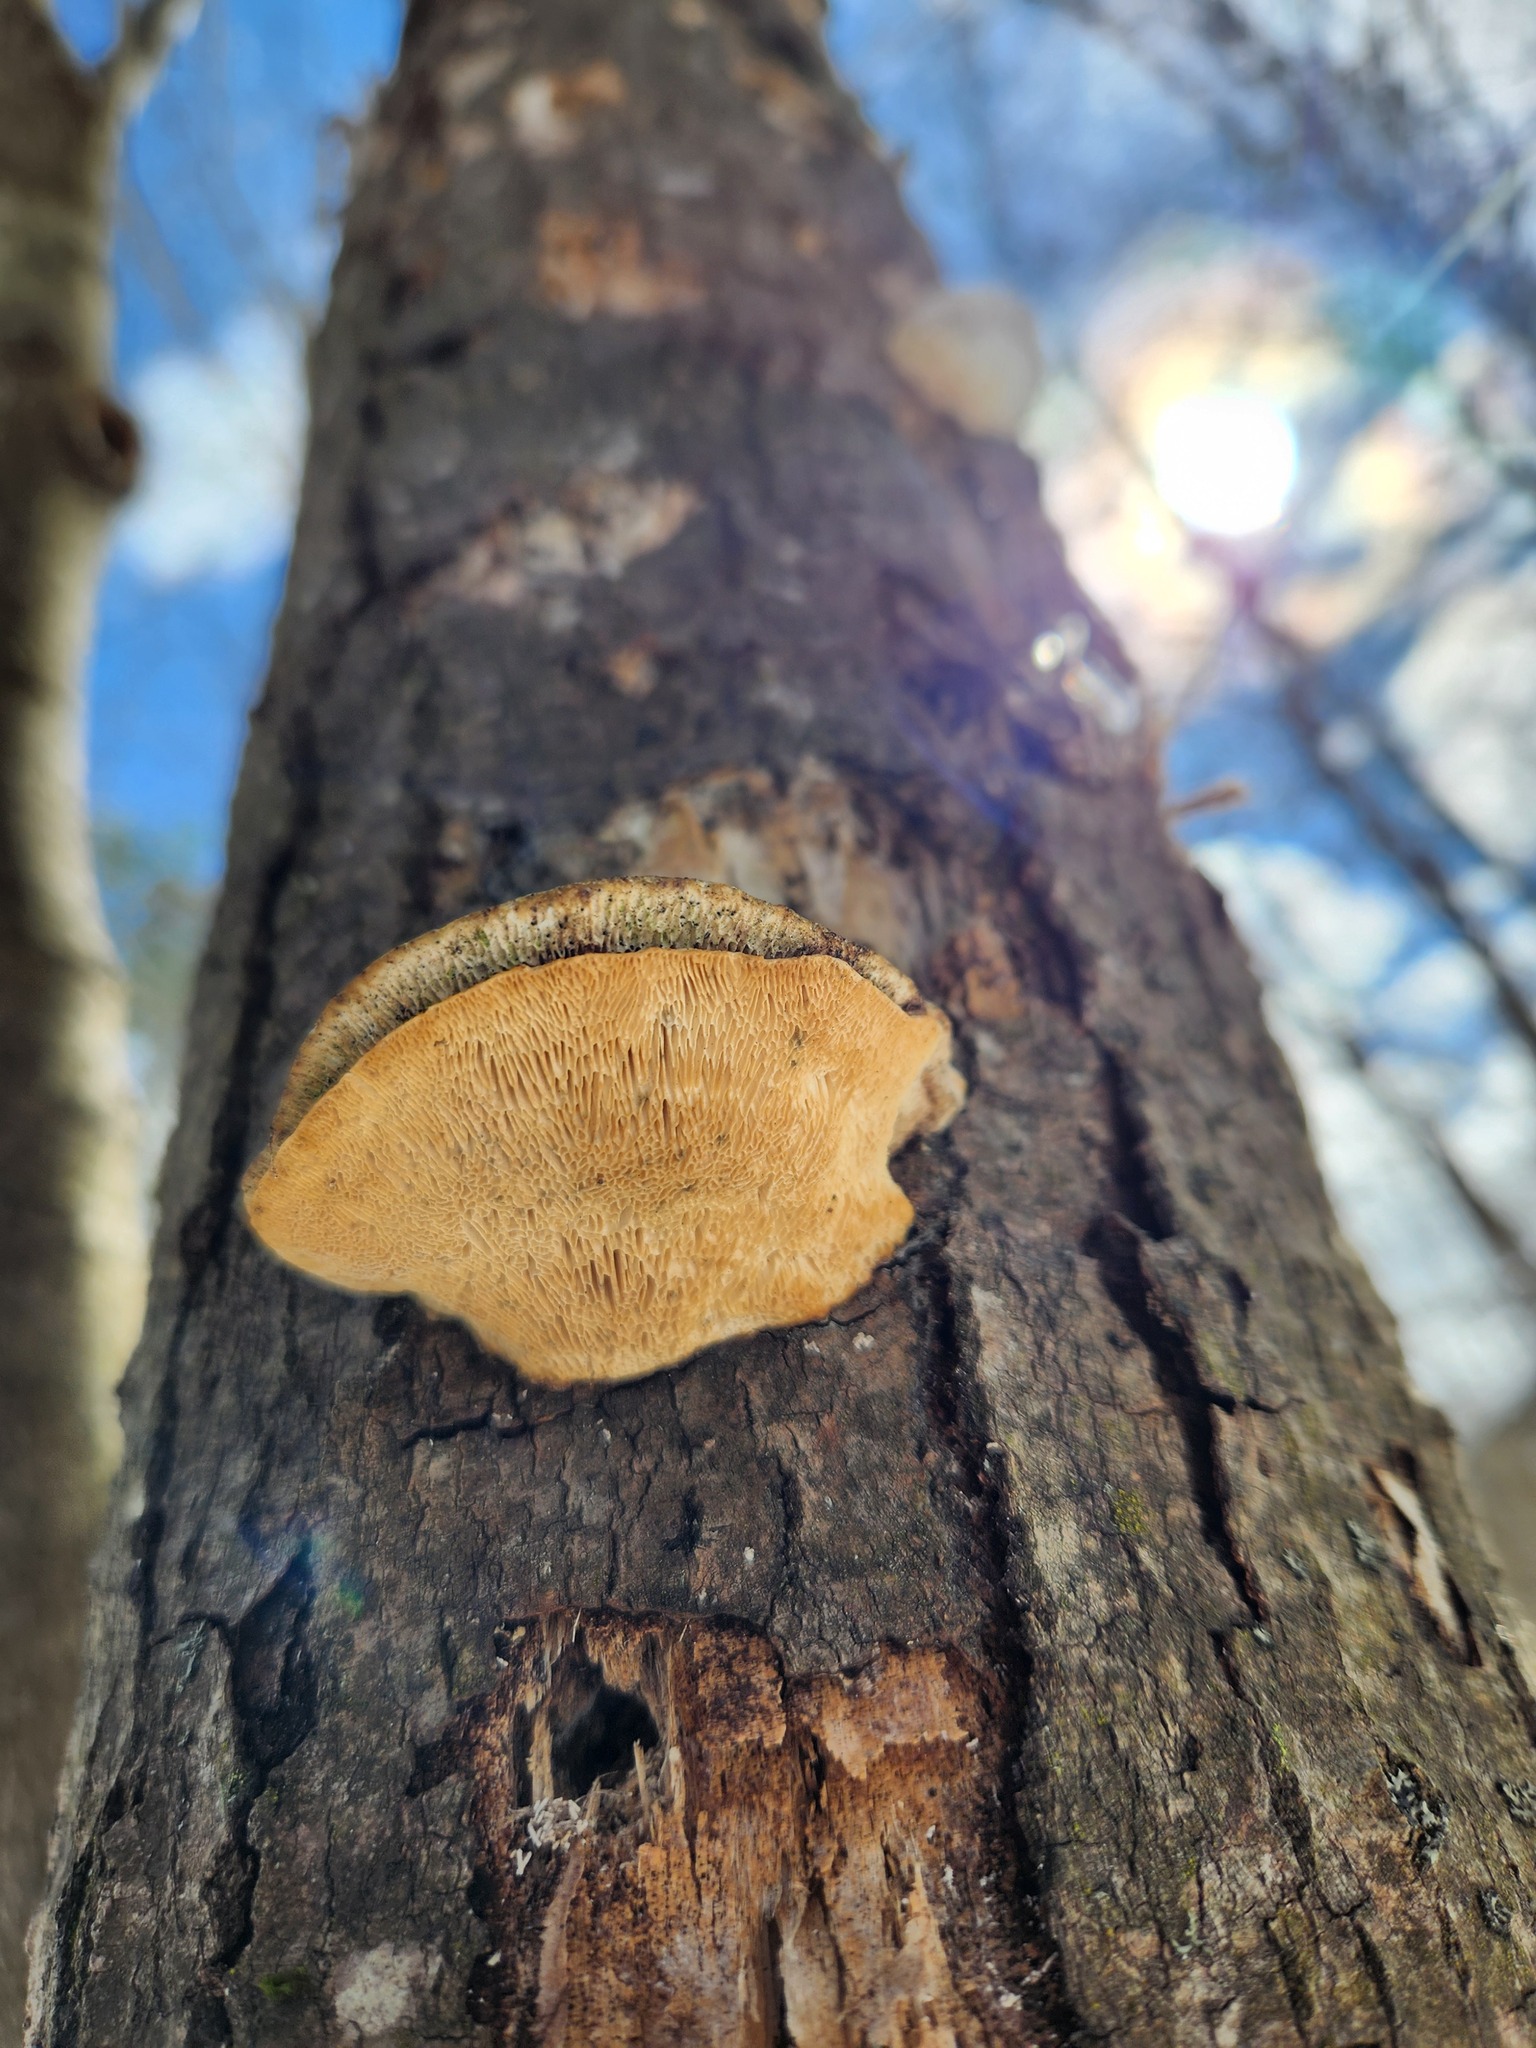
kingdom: Fungi
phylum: Basidiomycota
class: Agaricomycetes
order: Polyporales
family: Polyporaceae
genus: Trametes
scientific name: Trametes gibbosa
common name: Lumpy bracket
